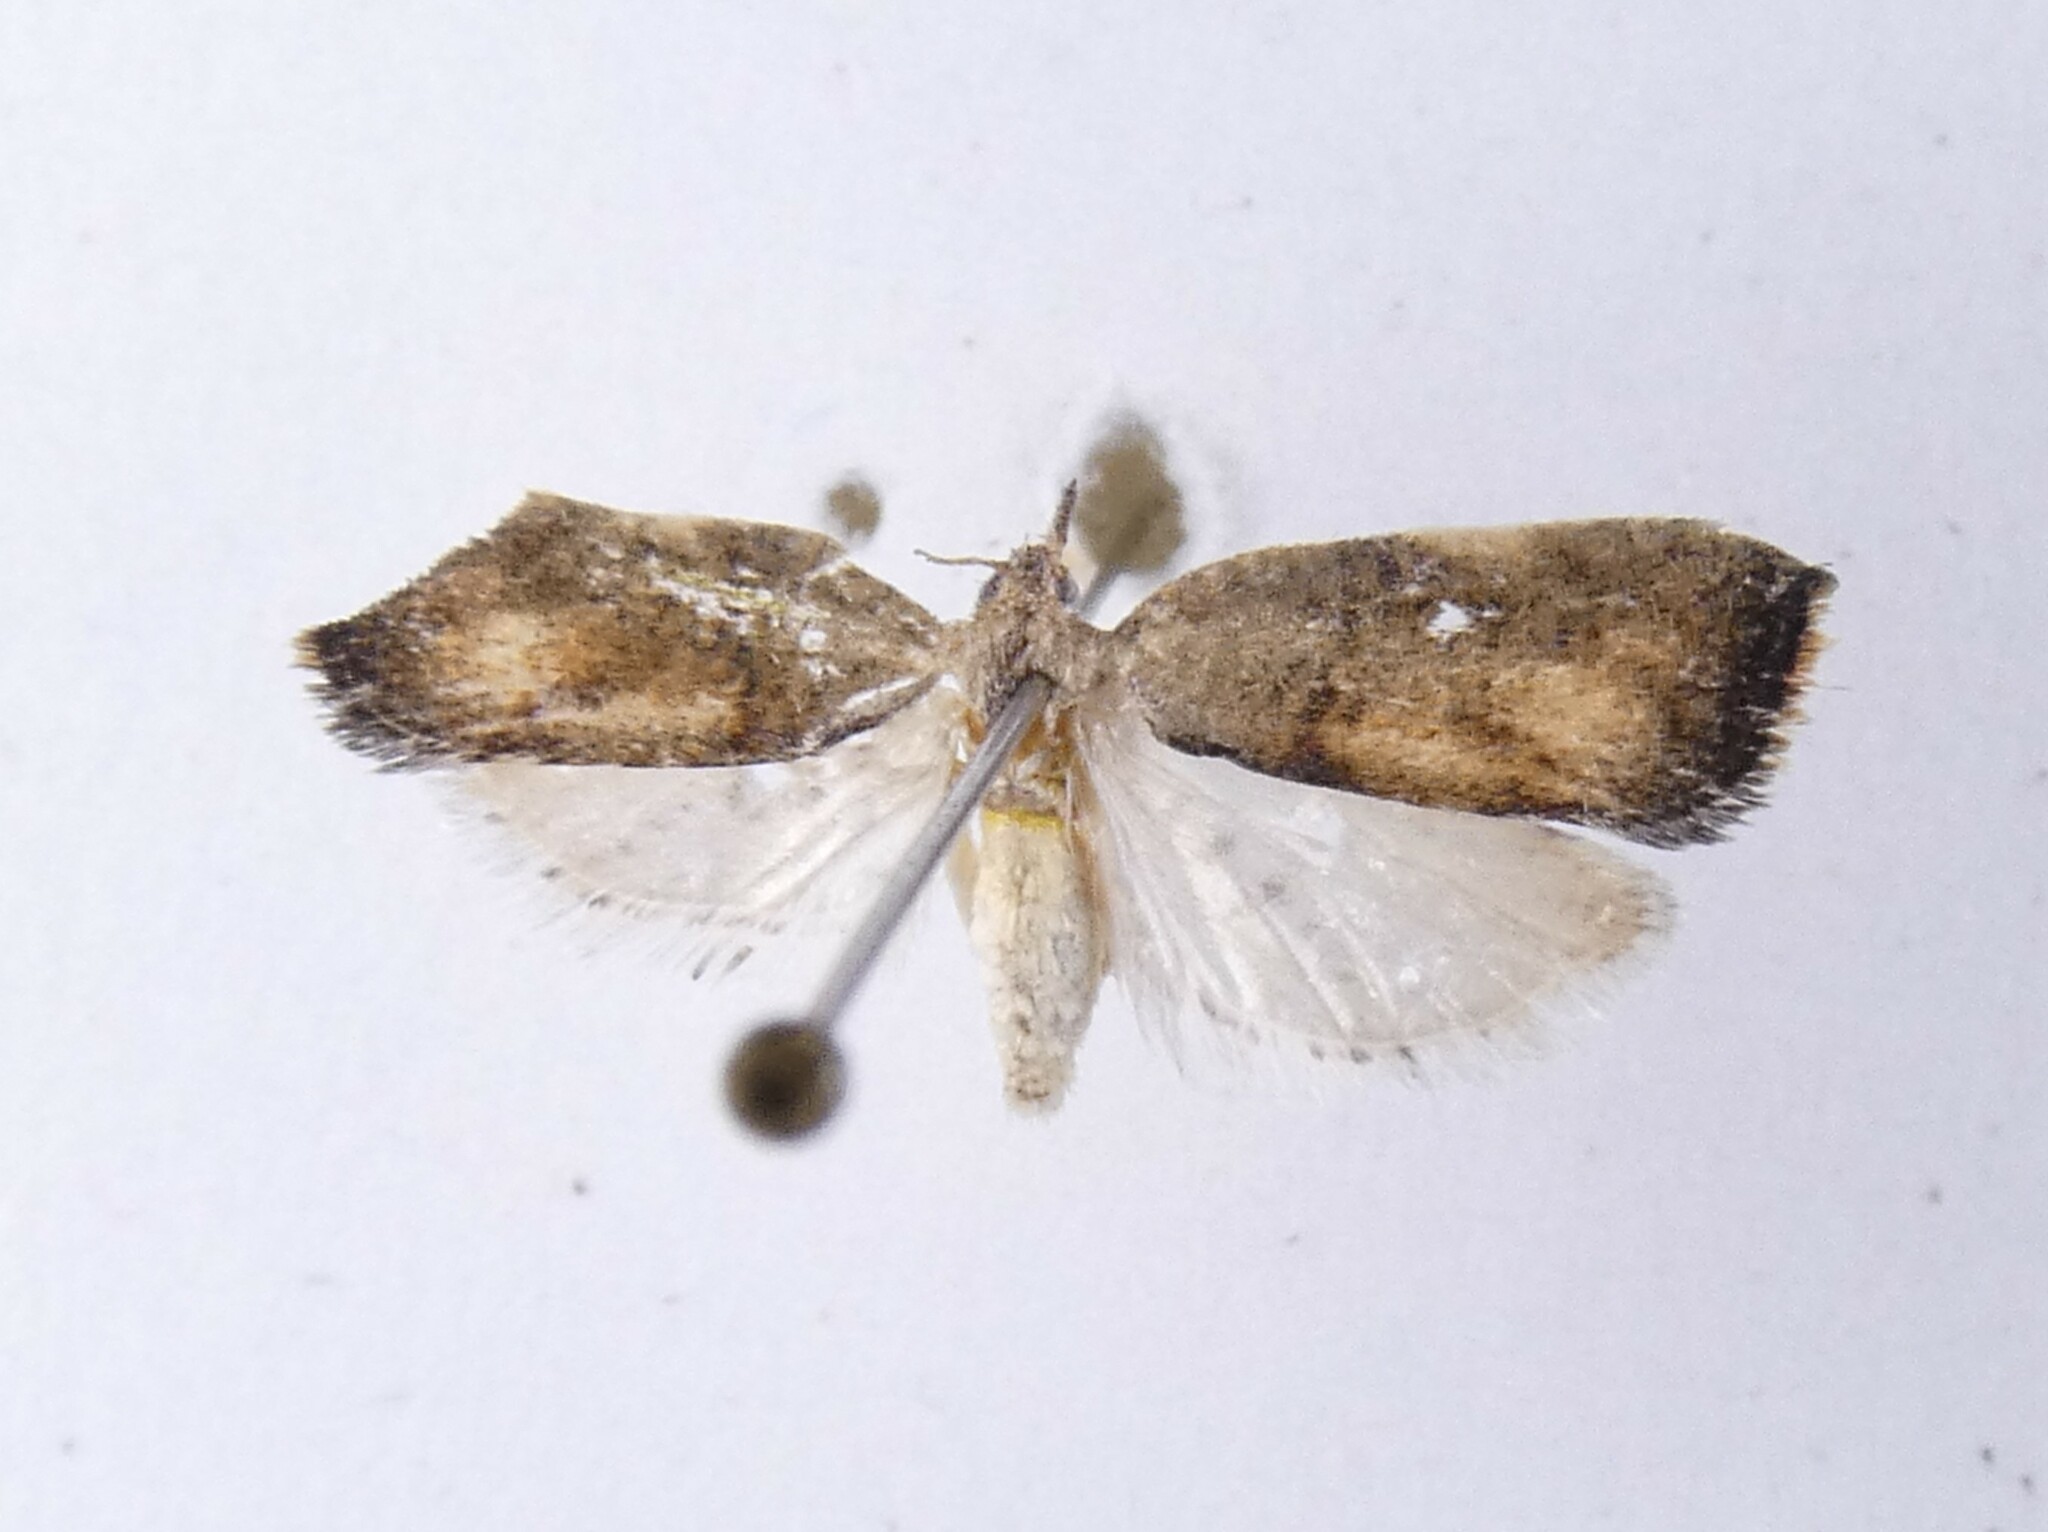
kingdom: Animalia
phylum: Arthropoda
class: Insecta
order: Lepidoptera
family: Tortricidae
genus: Pyrgotis
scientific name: Pyrgotis plagiatana
